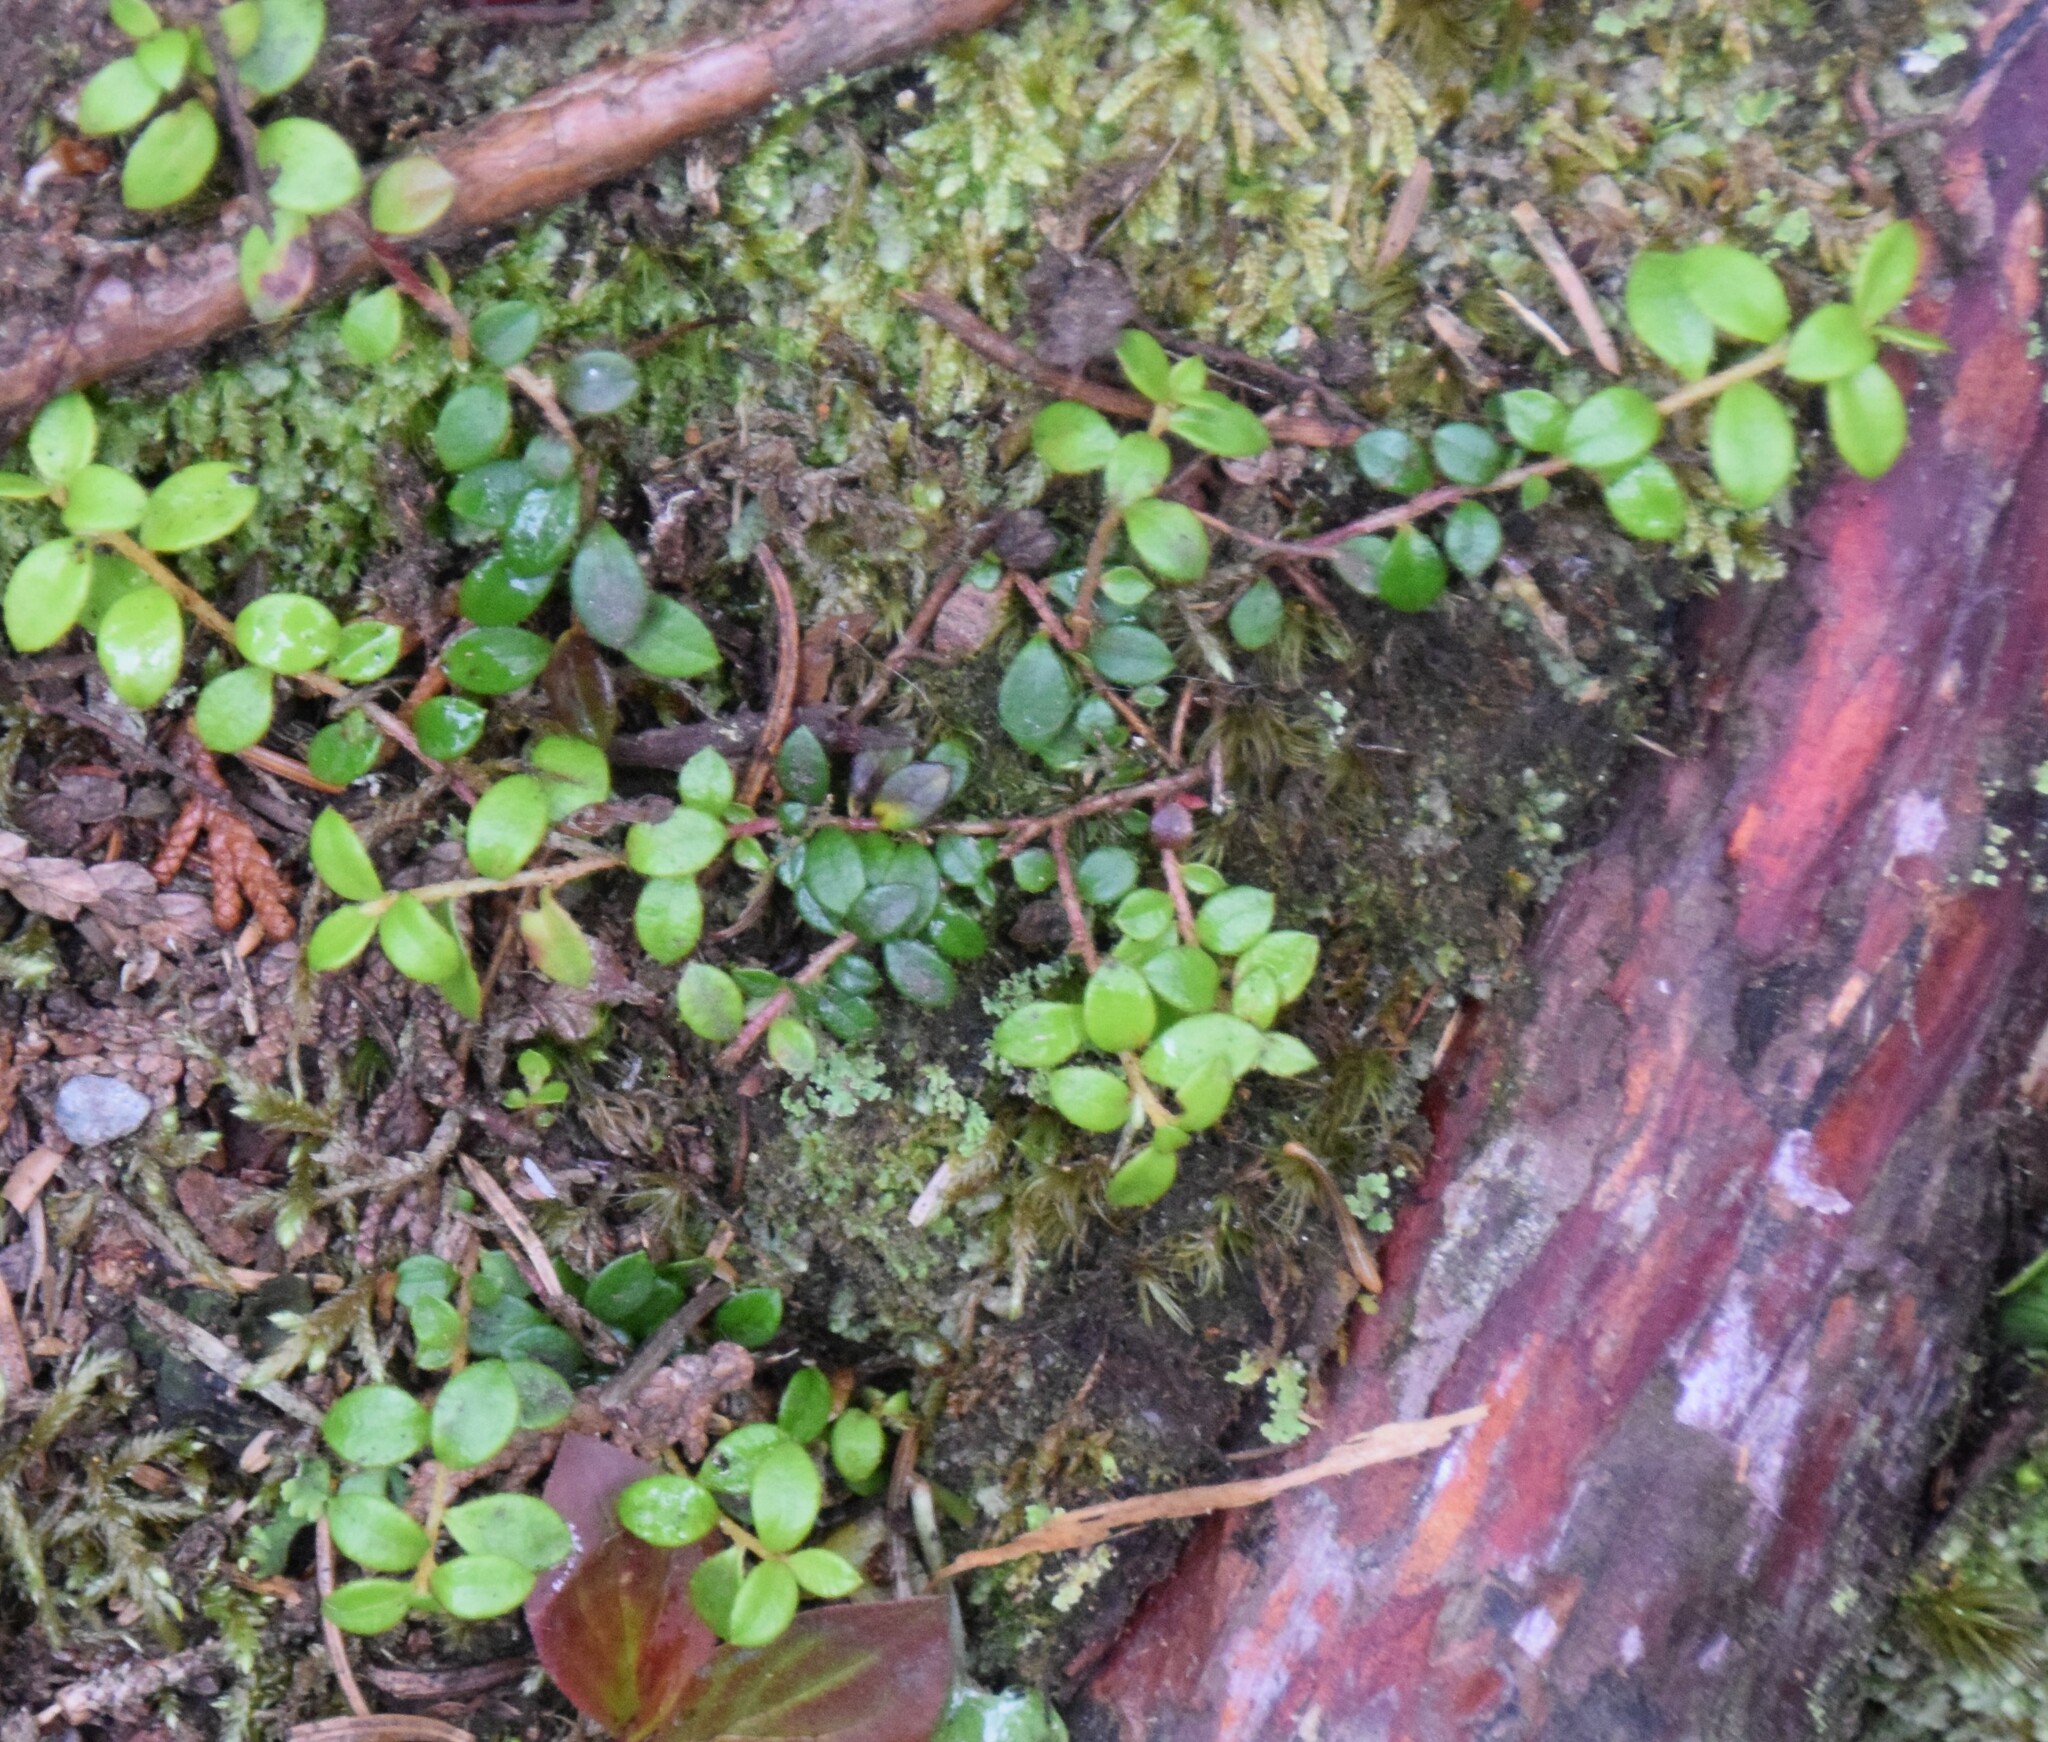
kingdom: Plantae
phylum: Tracheophyta
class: Magnoliopsida
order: Ericales
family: Ericaceae
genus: Gaultheria
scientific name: Gaultheria hispidula
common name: Cancer wintergreen
